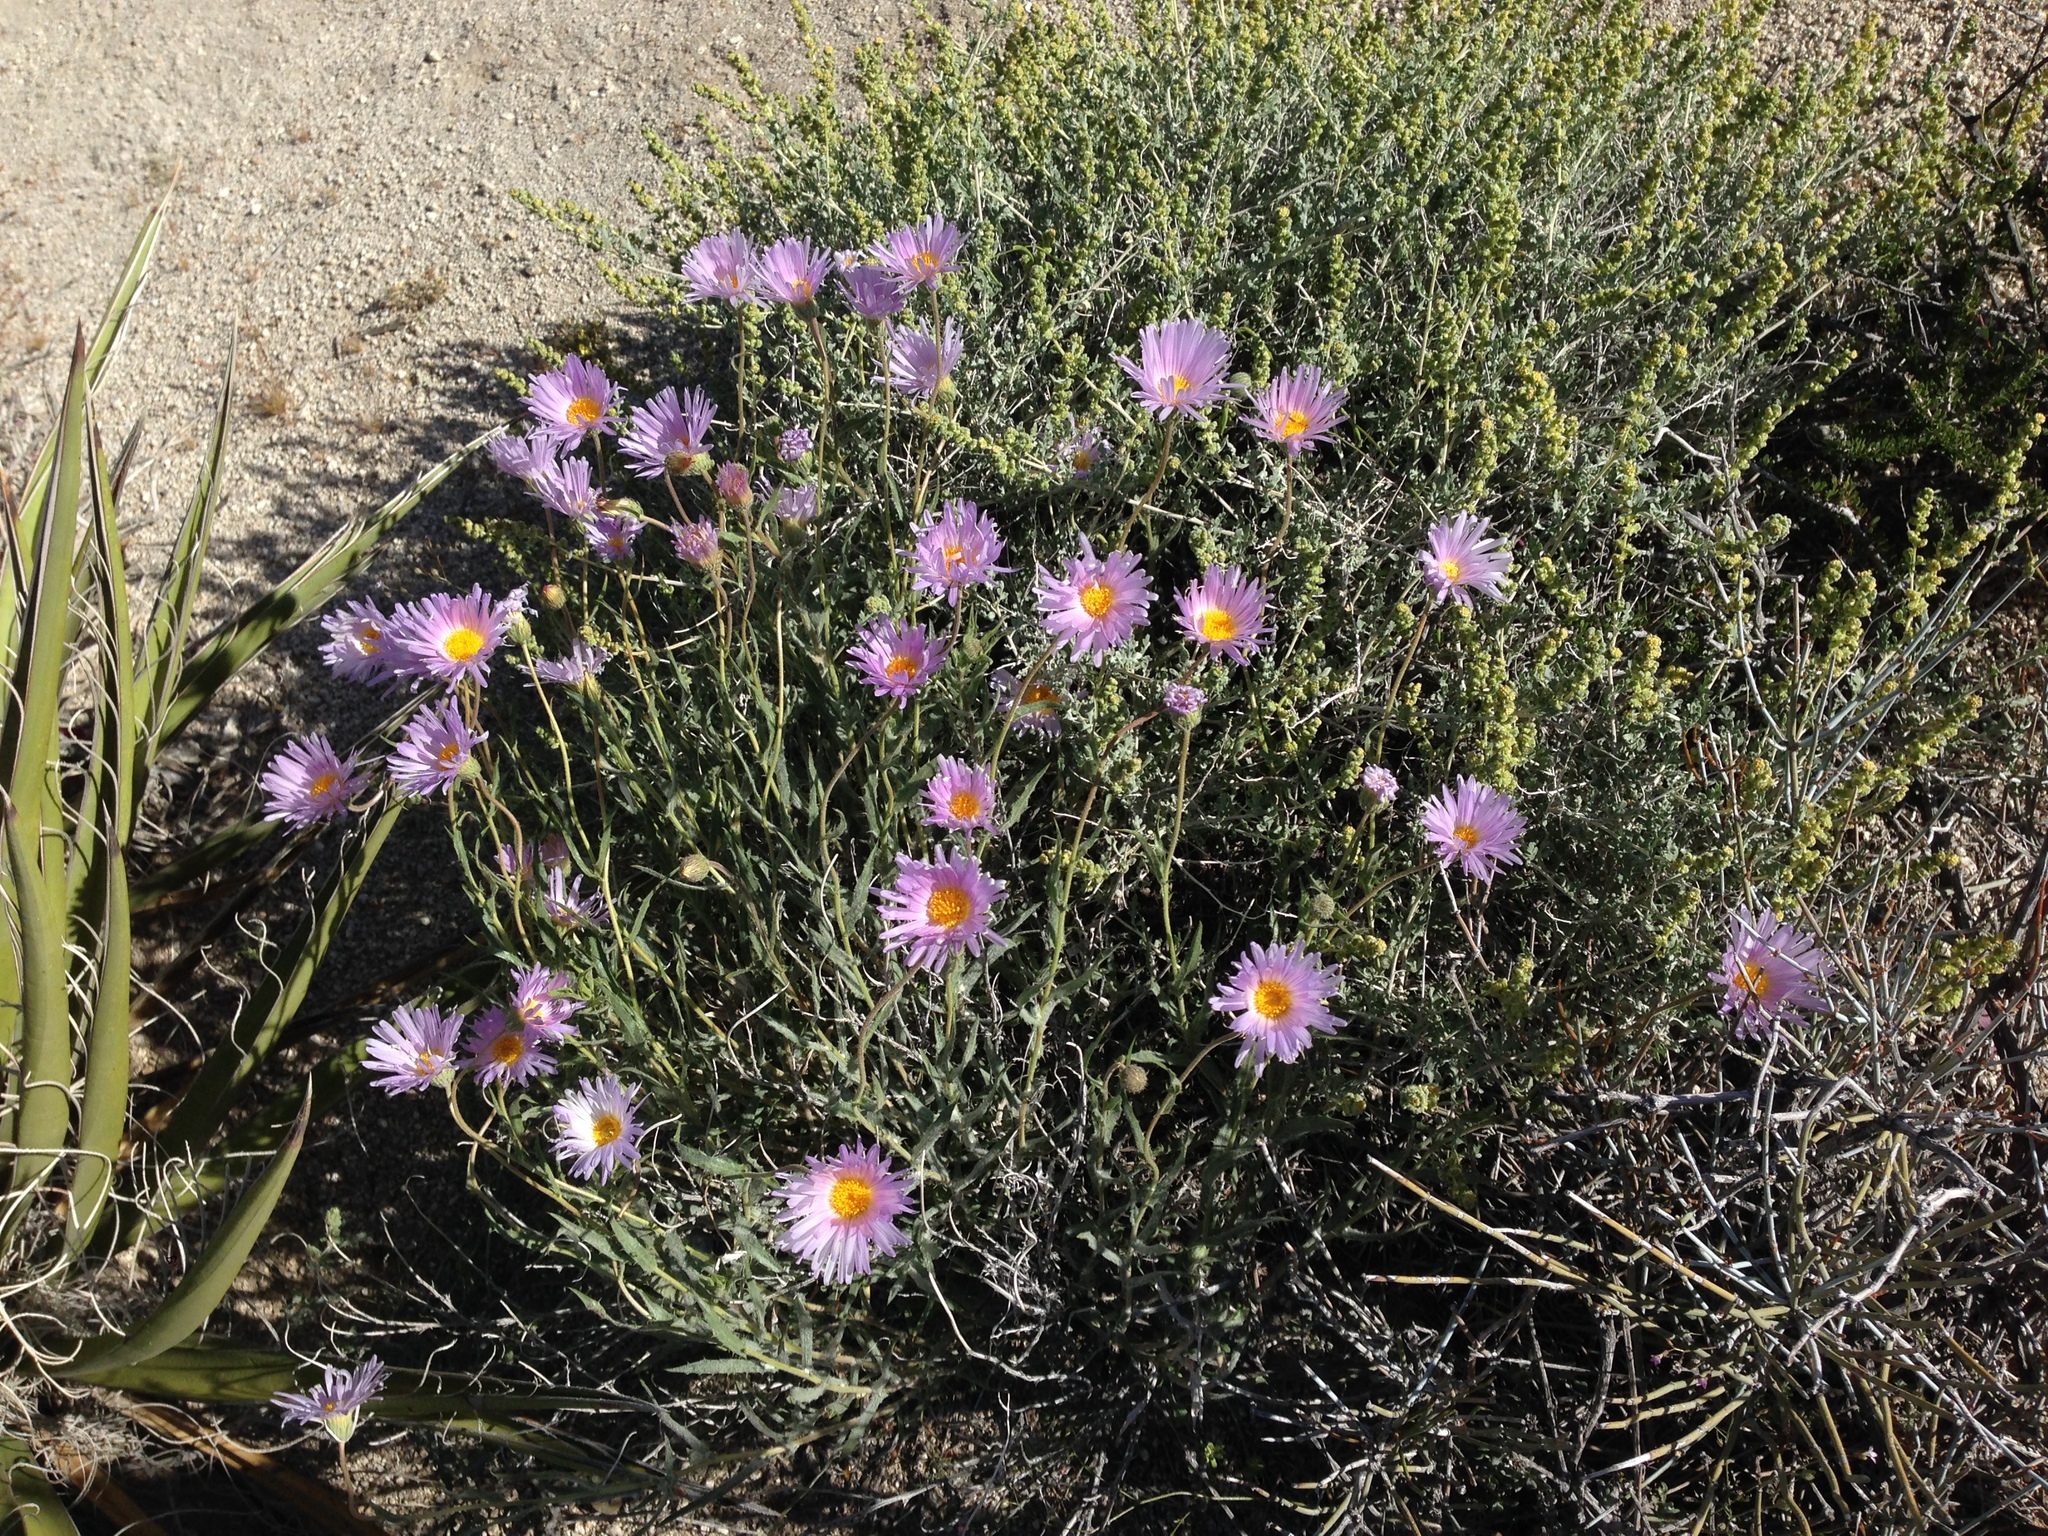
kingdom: Plantae
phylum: Tracheophyta
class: Magnoliopsida
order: Asterales
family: Asteraceae
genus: Ambrosia
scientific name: Ambrosia dumosa
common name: Bur-sage
